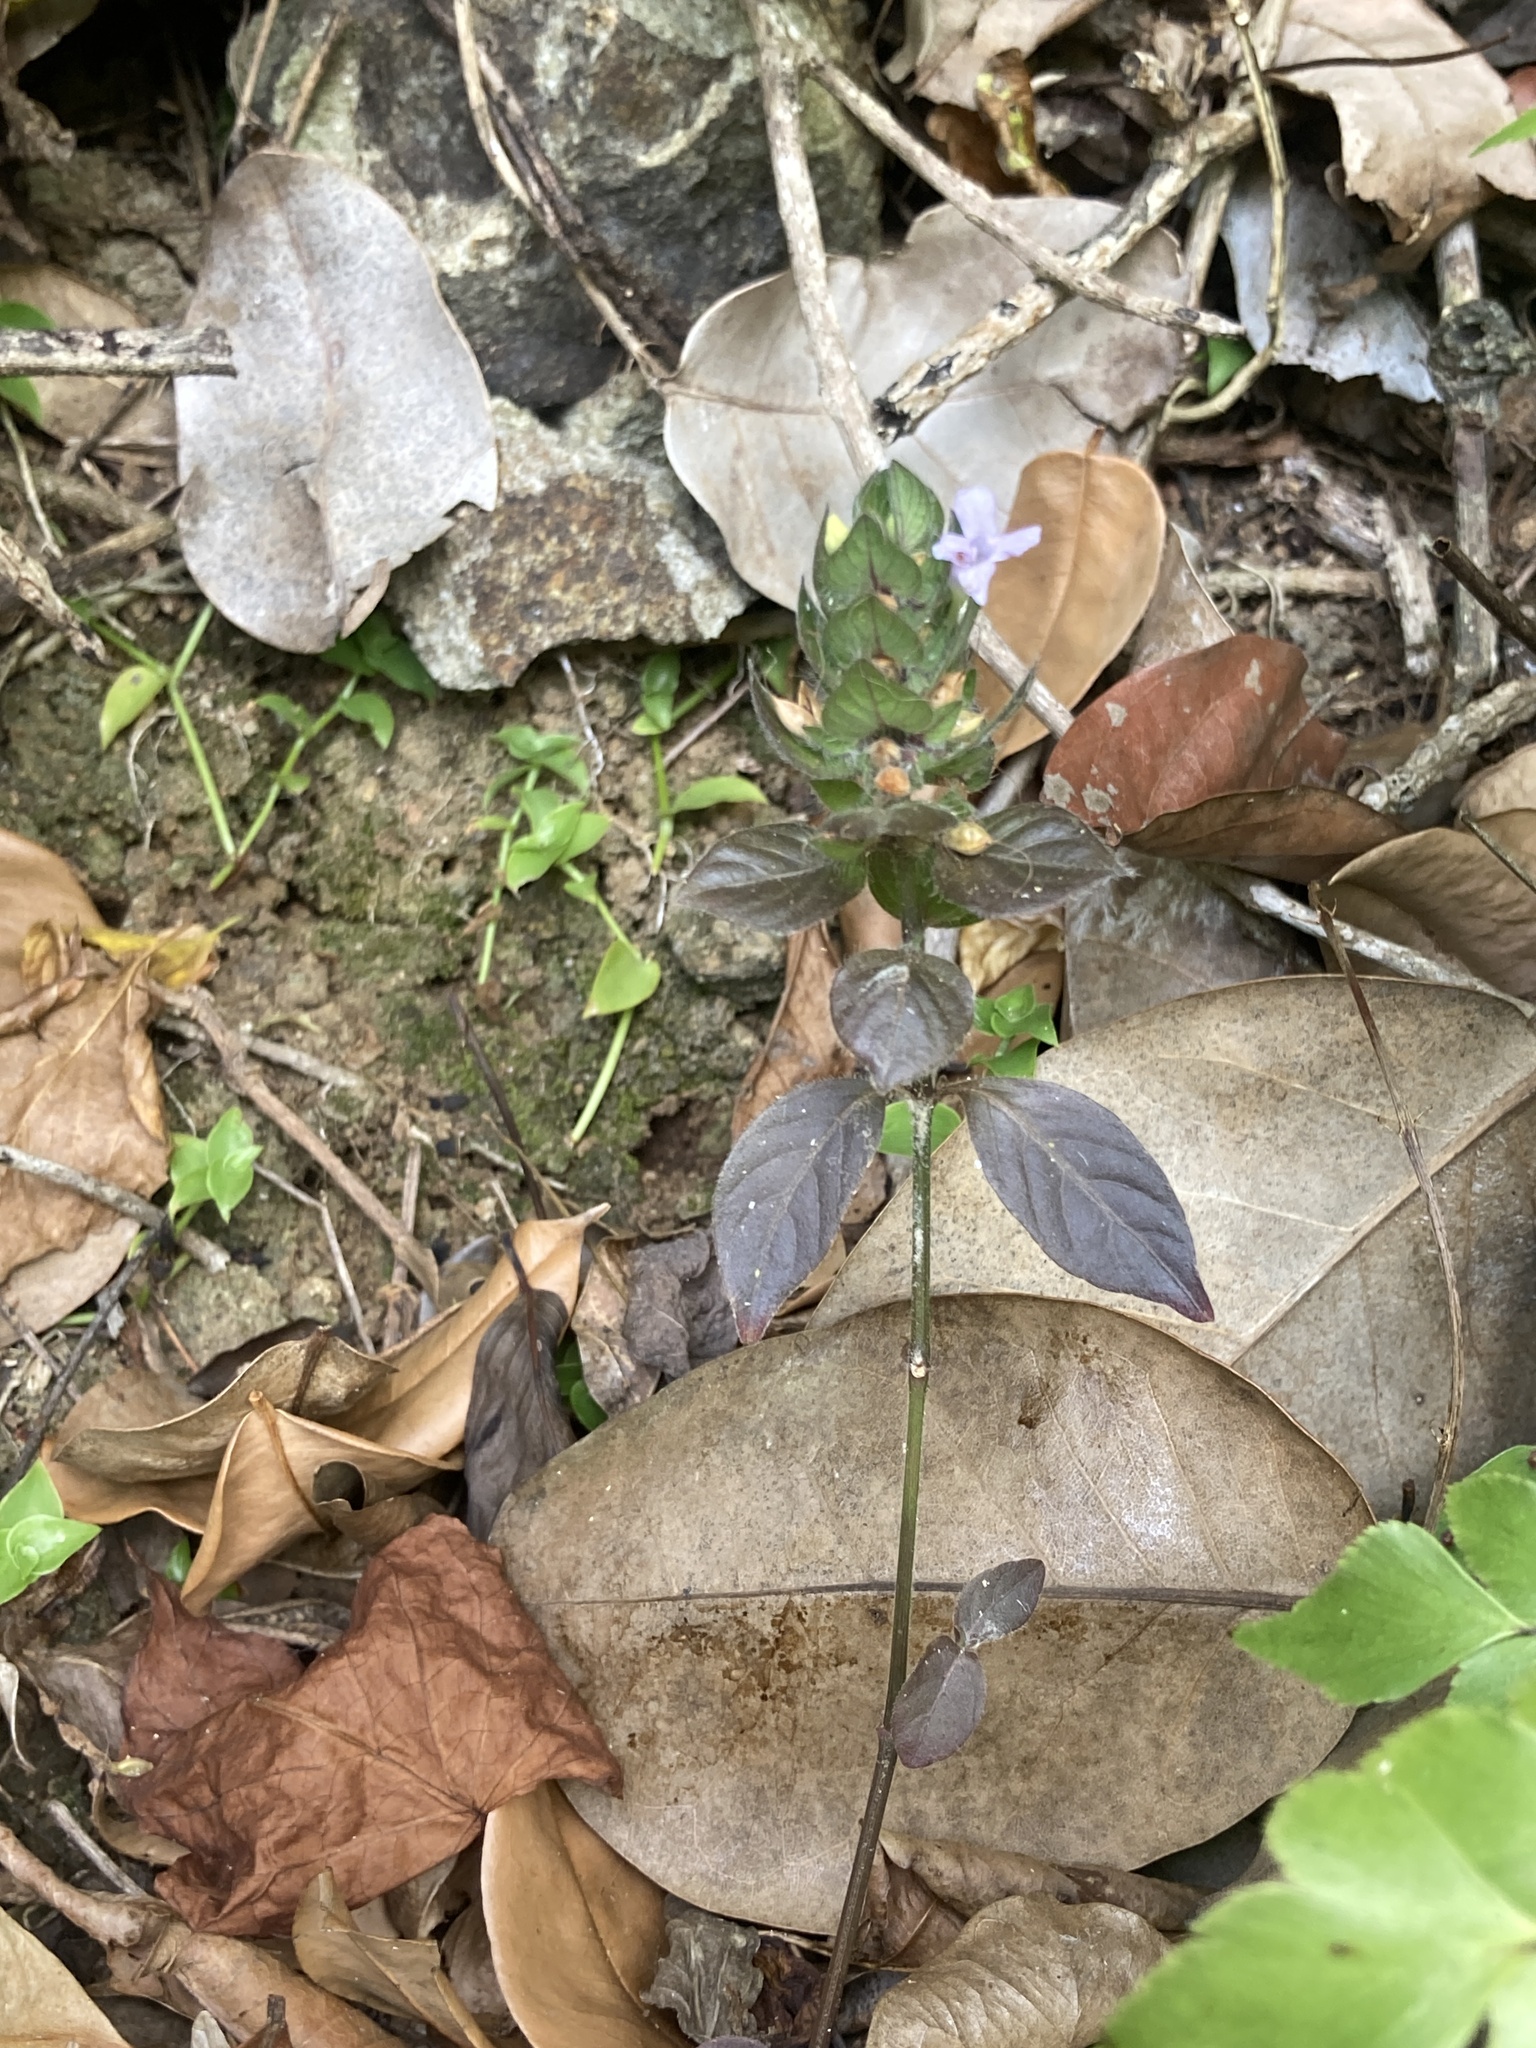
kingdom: Plantae
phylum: Tracheophyta
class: Magnoliopsida
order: Lamiales
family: Acanthaceae
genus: Ruellia
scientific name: Ruellia blechum
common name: Browne's blechum
